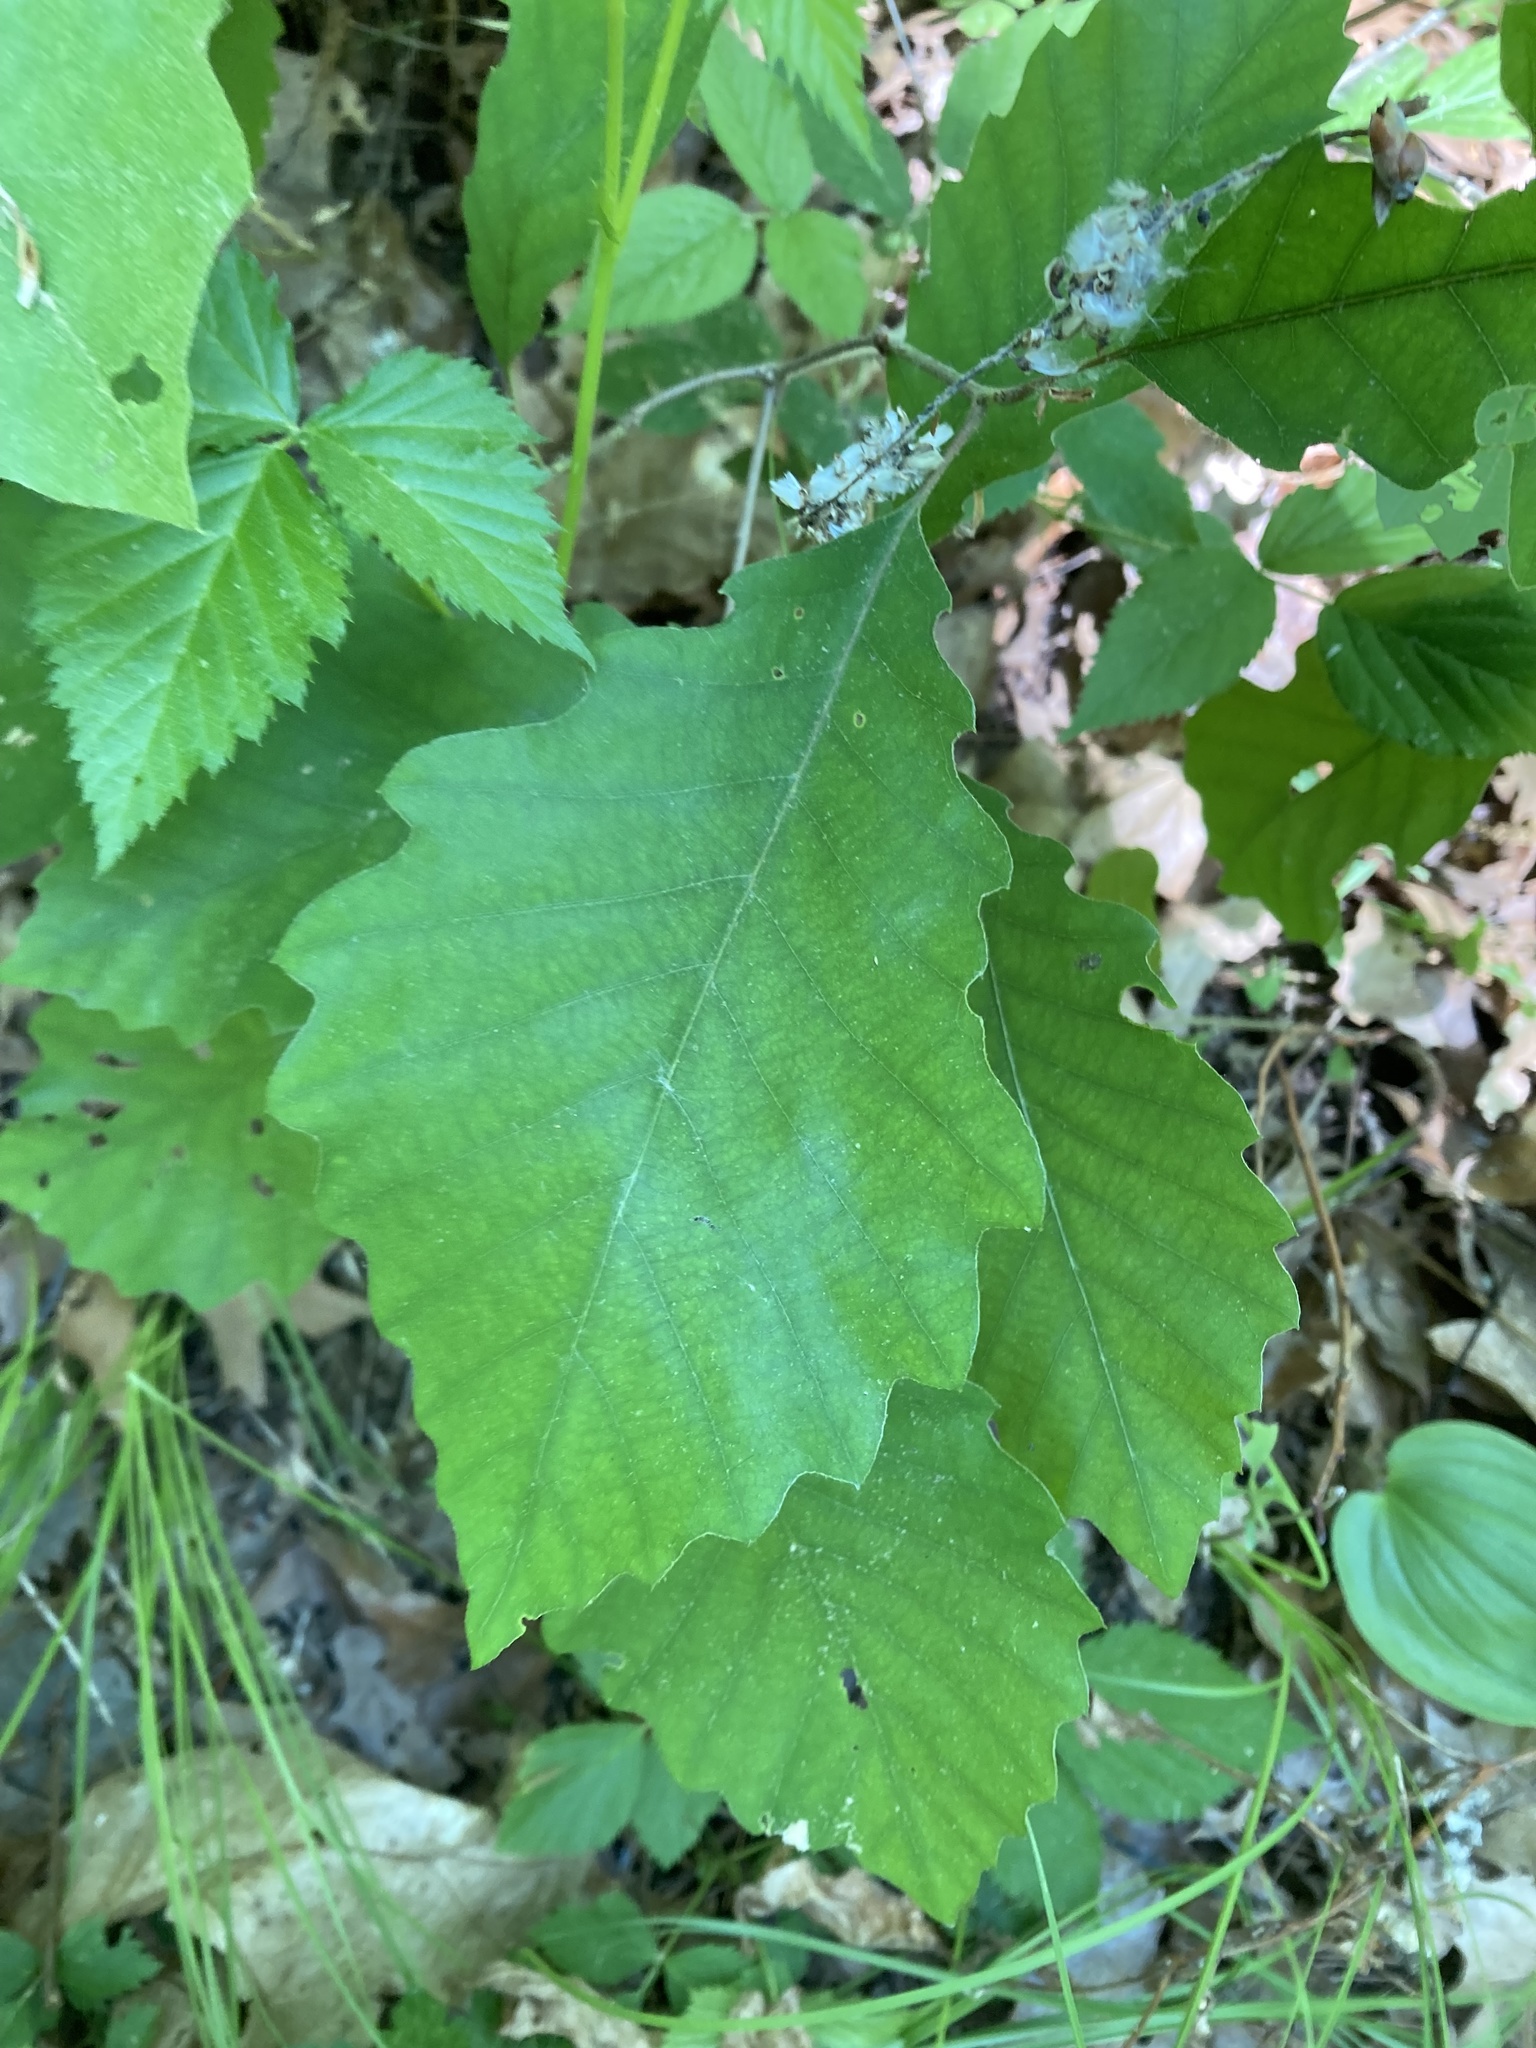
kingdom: Plantae
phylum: Tracheophyta
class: Magnoliopsida
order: Fagales
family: Fagaceae
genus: Quercus
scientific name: Quercus muehlenbergii
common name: Chinkapin oak
